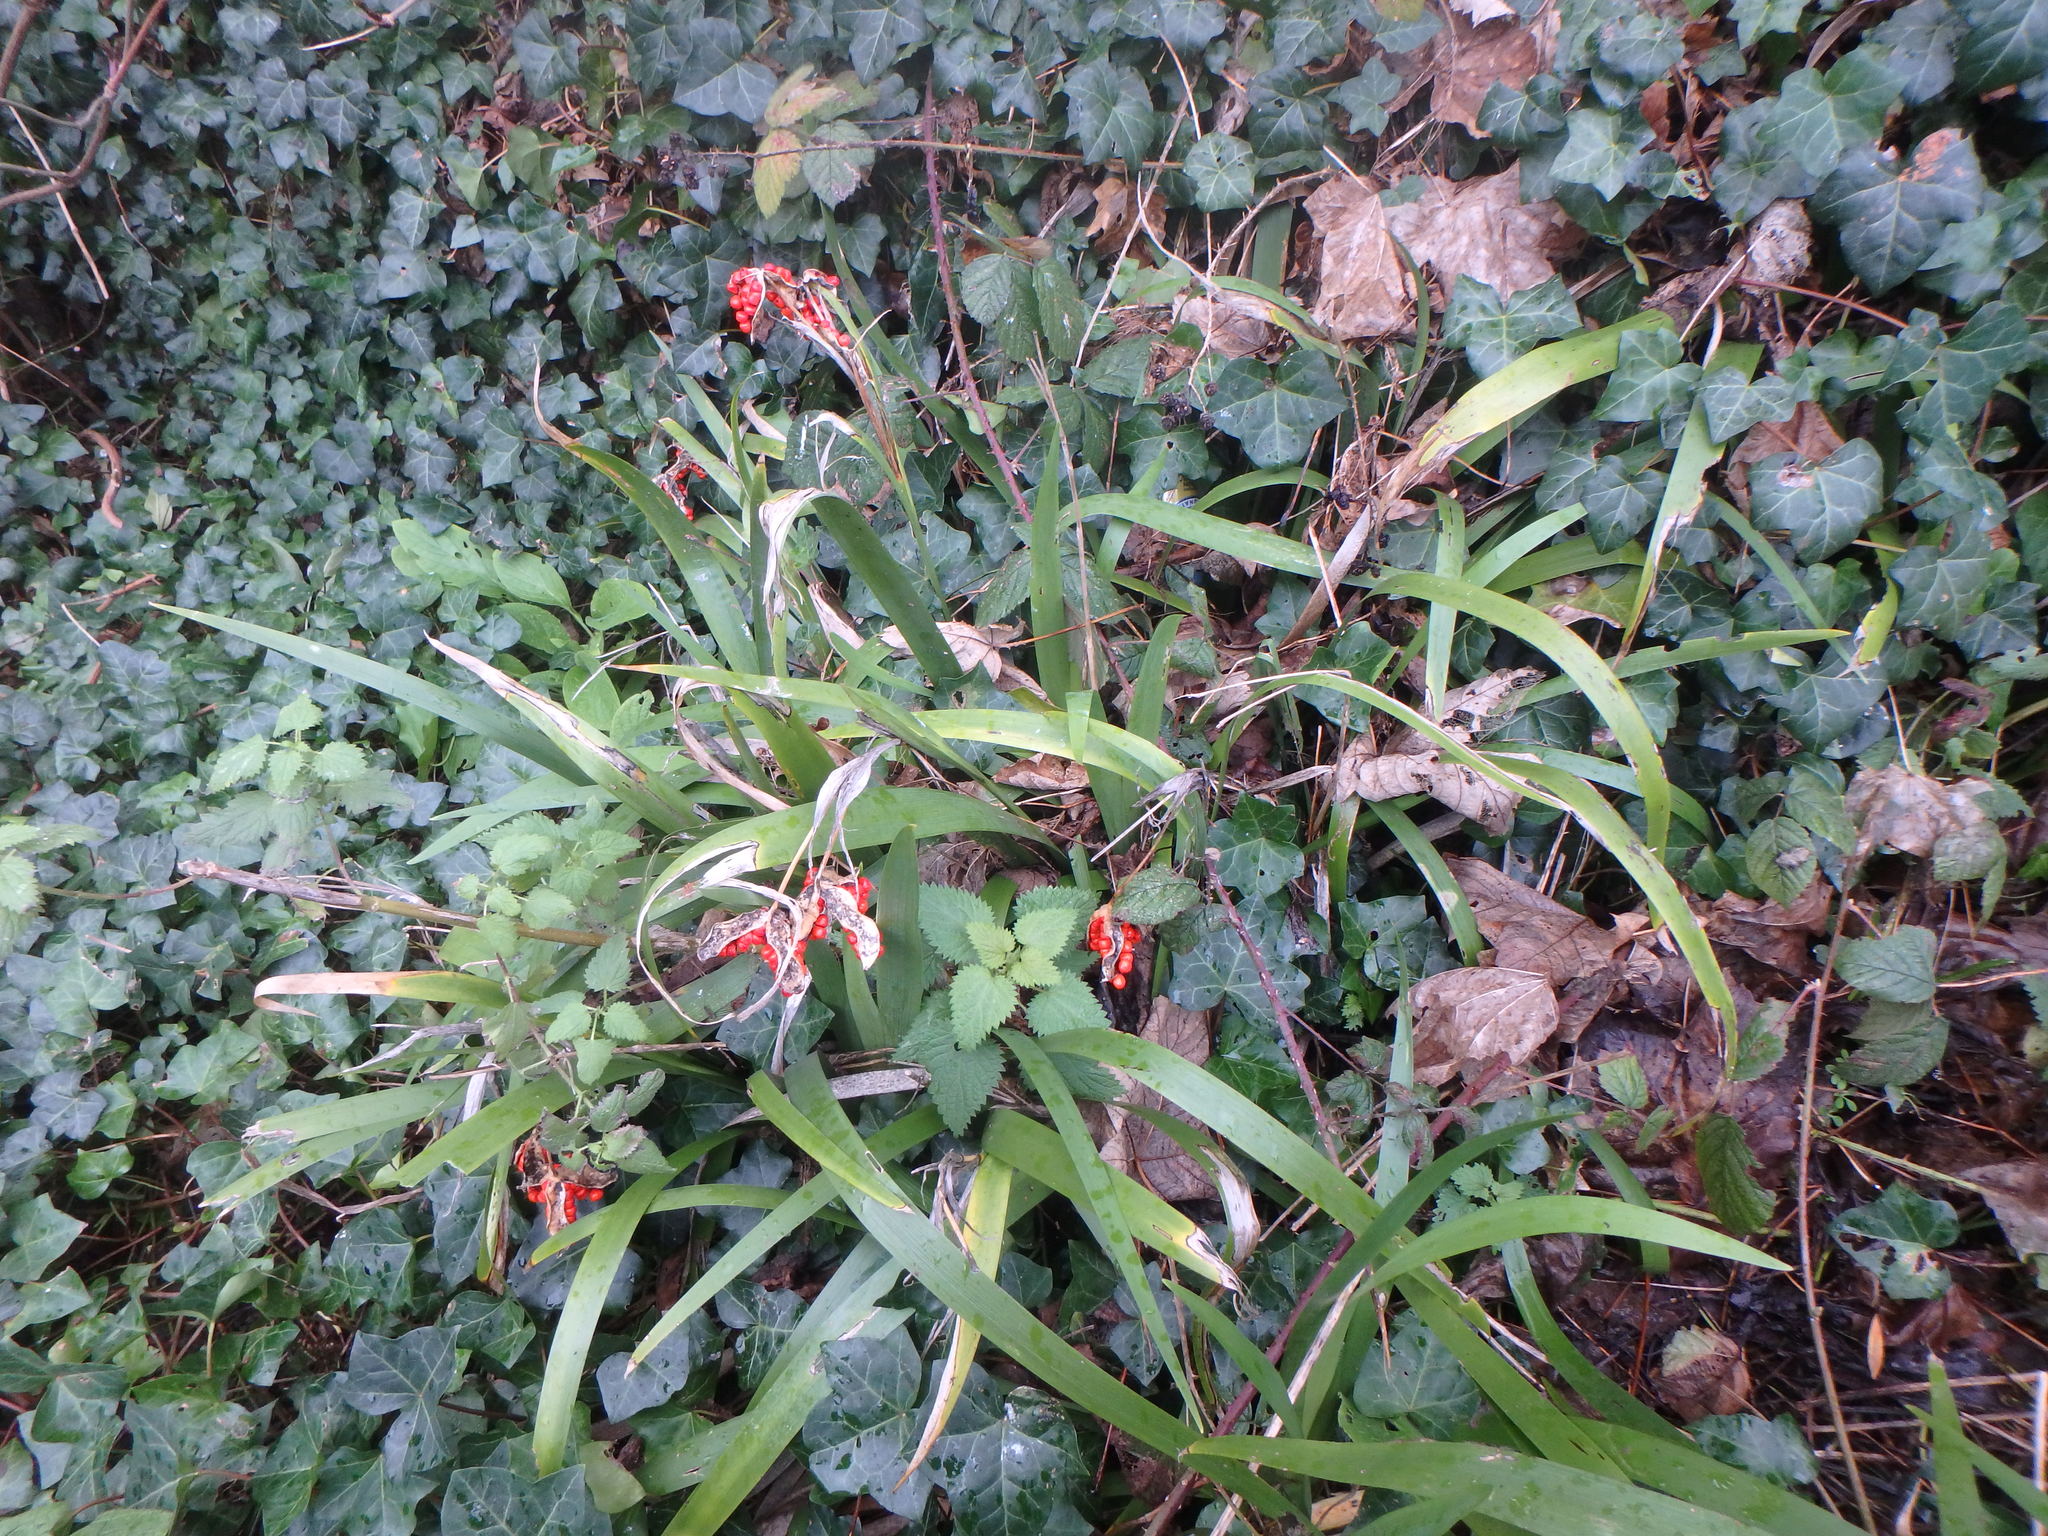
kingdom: Plantae
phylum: Tracheophyta
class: Liliopsida
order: Asparagales
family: Iridaceae
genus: Iris
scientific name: Iris foetidissima
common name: Stinking iris
